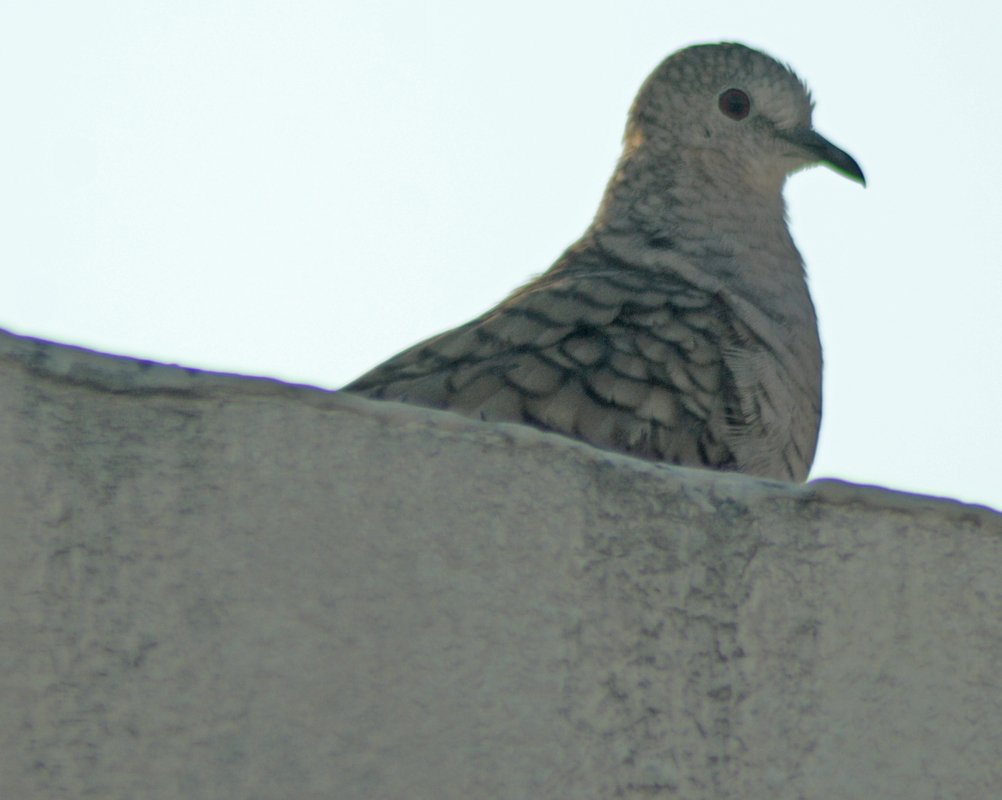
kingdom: Animalia
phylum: Chordata
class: Aves
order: Columbiformes
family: Columbidae
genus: Columbina
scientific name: Columbina inca
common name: Inca dove
